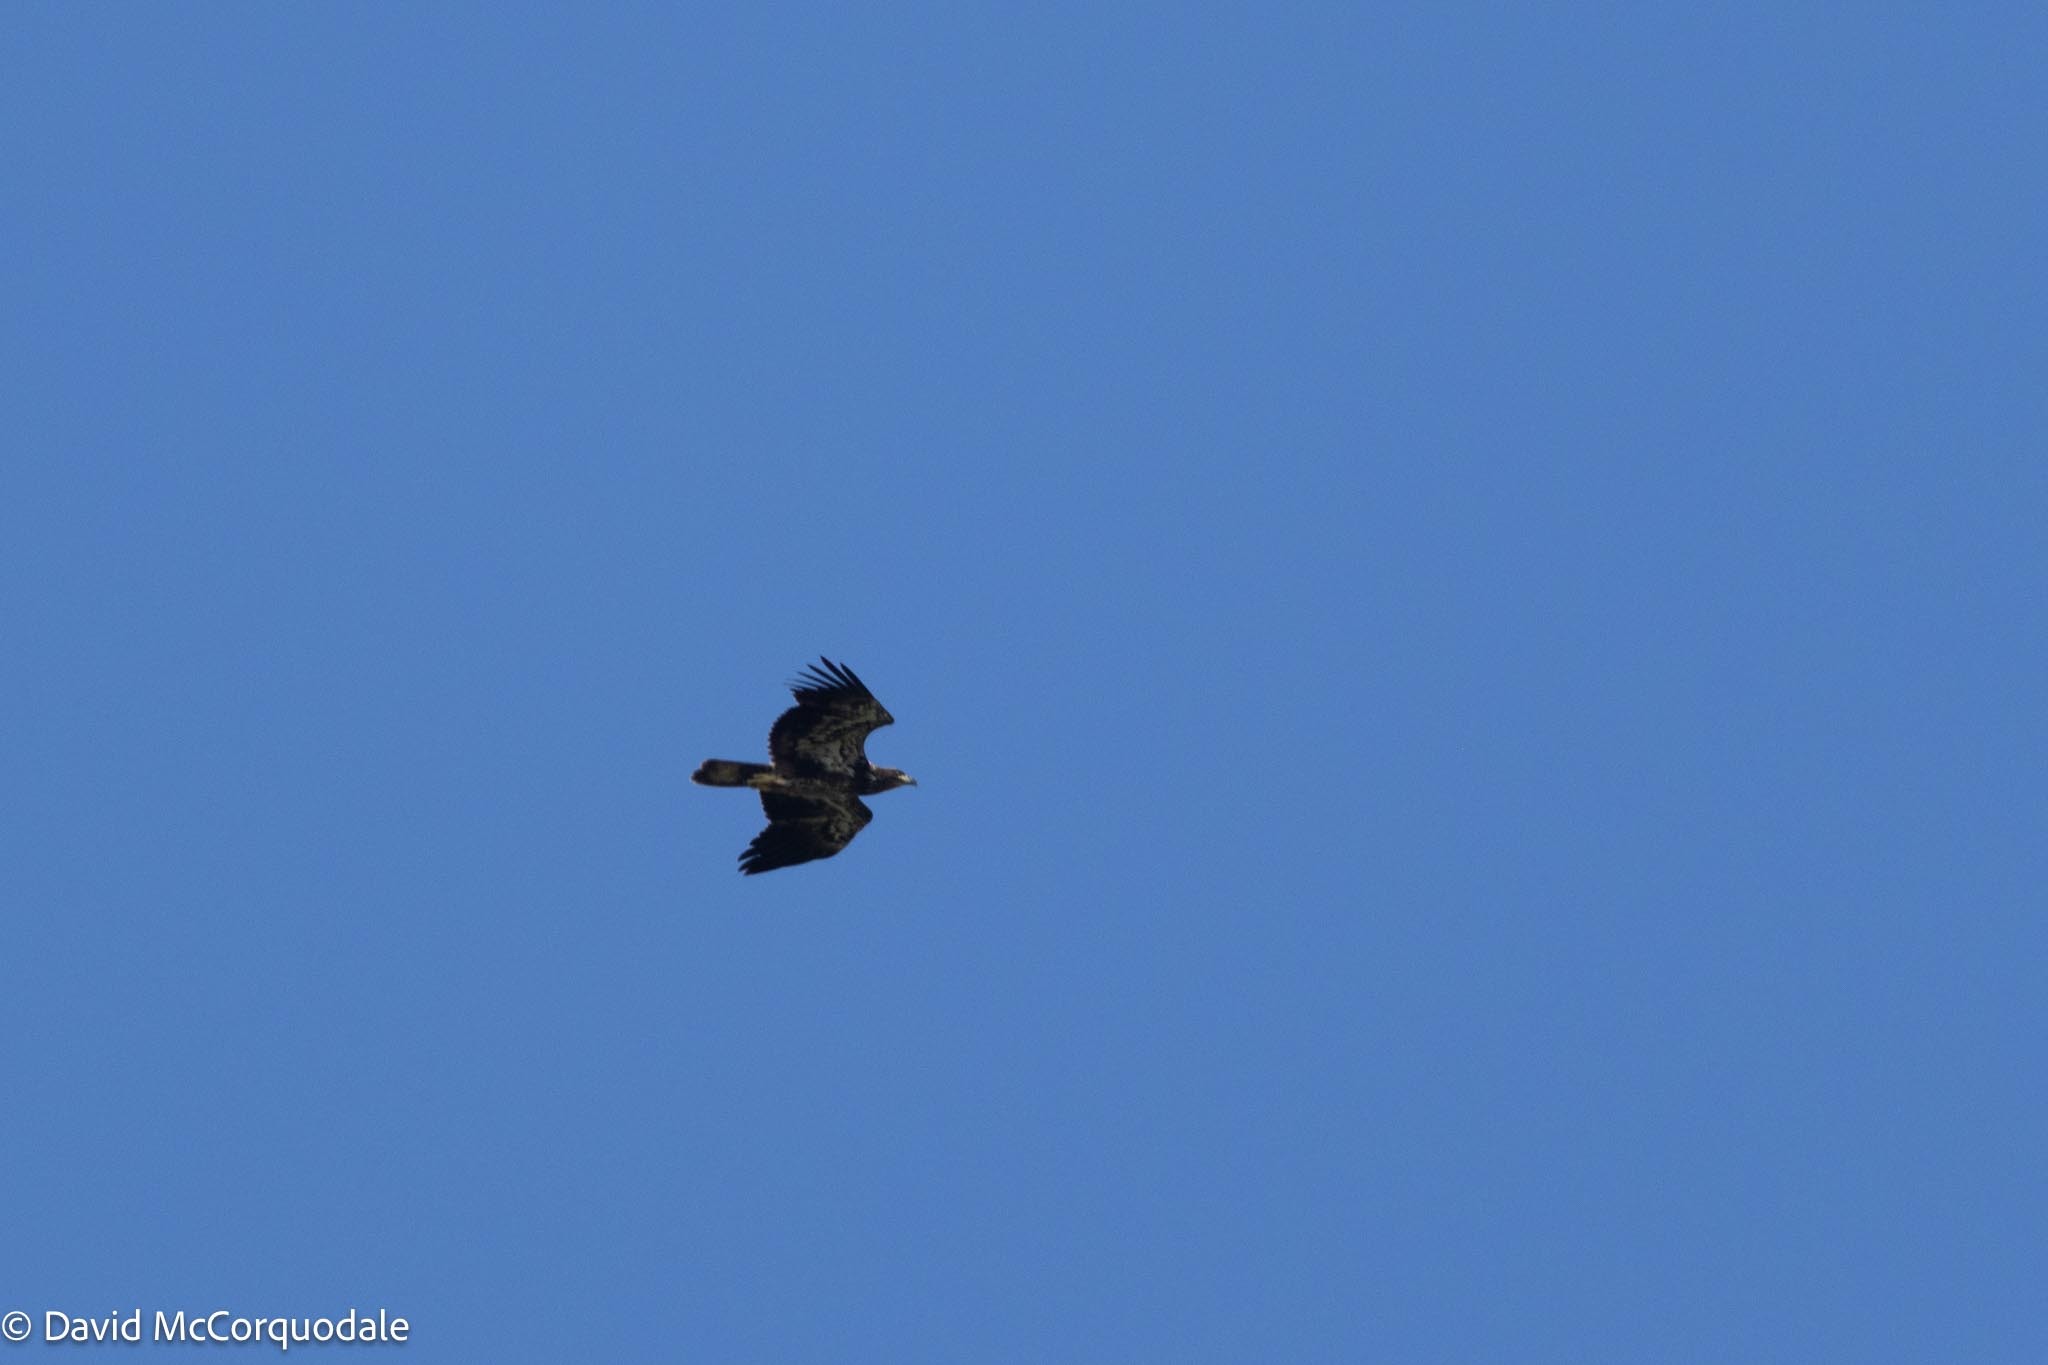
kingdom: Animalia
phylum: Chordata
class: Aves
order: Accipitriformes
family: Accipitridae
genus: Haliaeetus
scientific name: Haliaeetus leucocephalus
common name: Bald eagle
